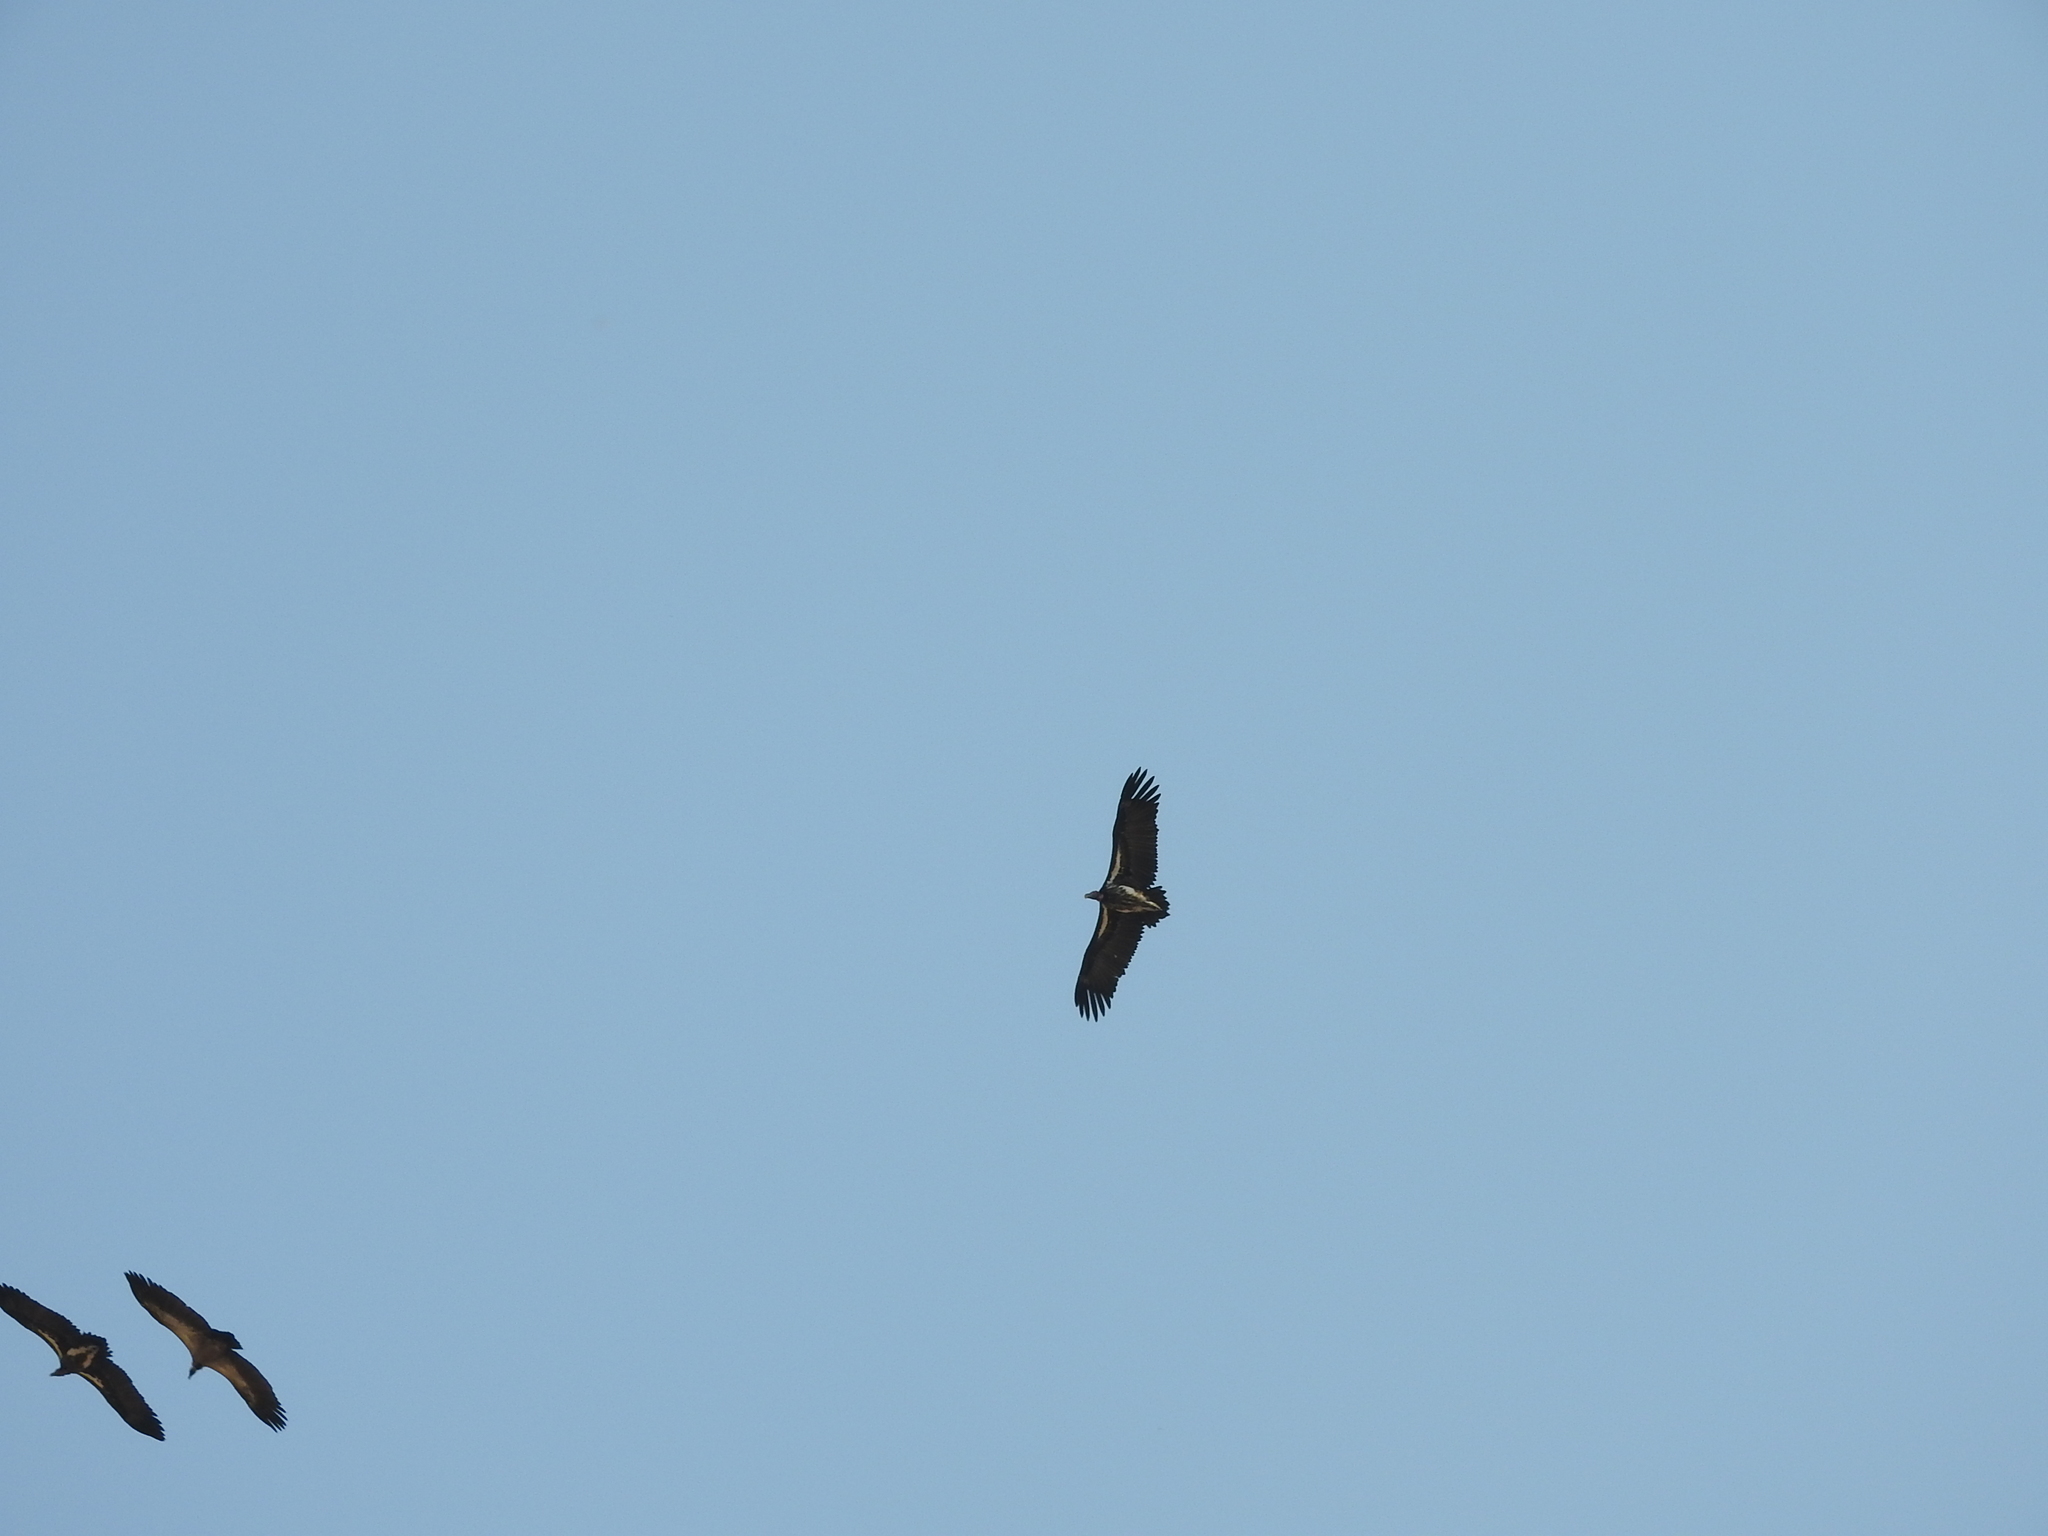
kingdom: Animalia
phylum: Chordata
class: Aves
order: Accipitriformes
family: Accipitridae
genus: Torgos
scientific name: Torgos tracheliotos
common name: Lappet-faced vulture
